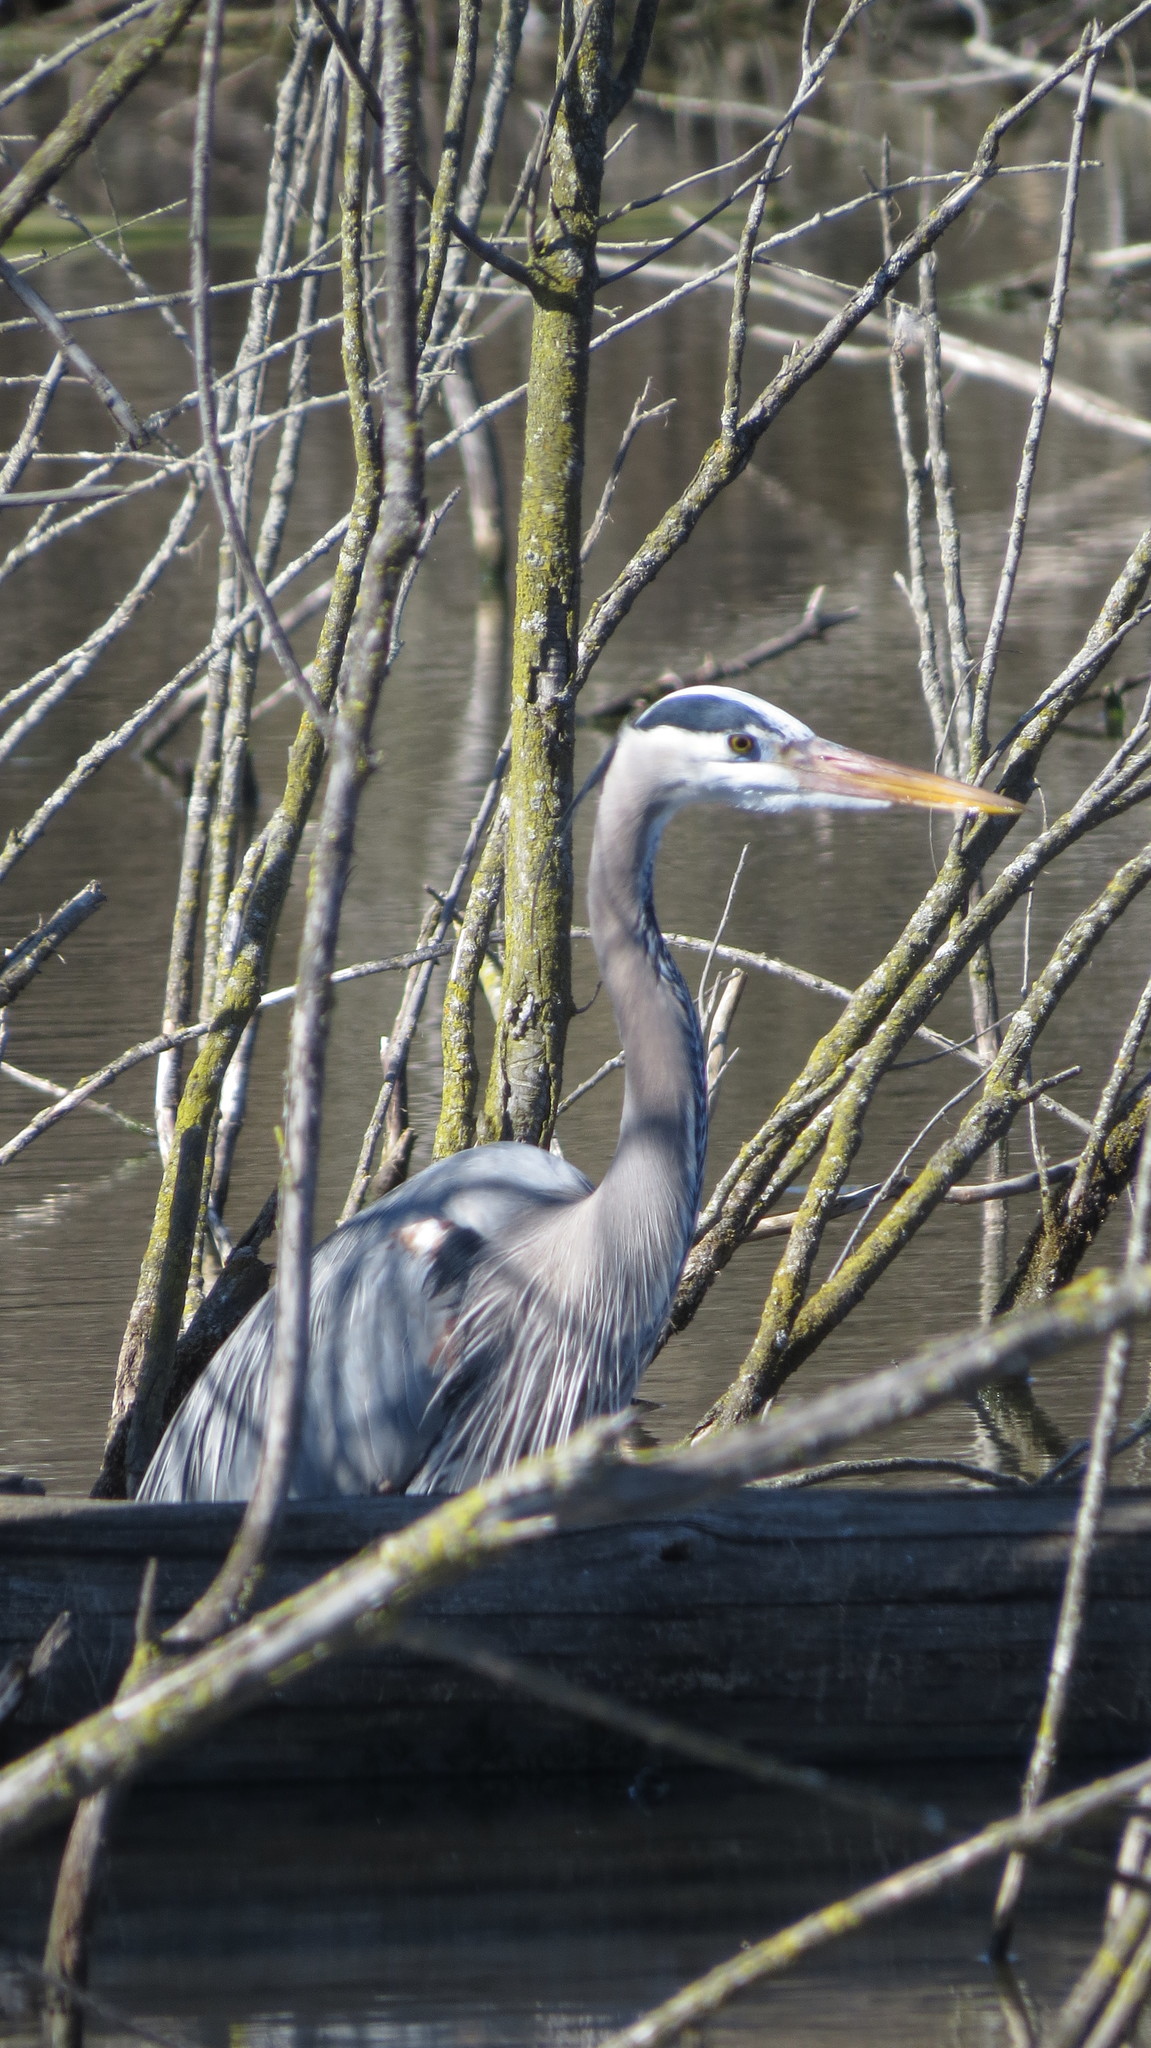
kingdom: Animalia
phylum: Chordata
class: Aves
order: Pelecaniformes
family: Ardeidae
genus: Ardea
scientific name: Ardea herodias
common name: Great blue heron
